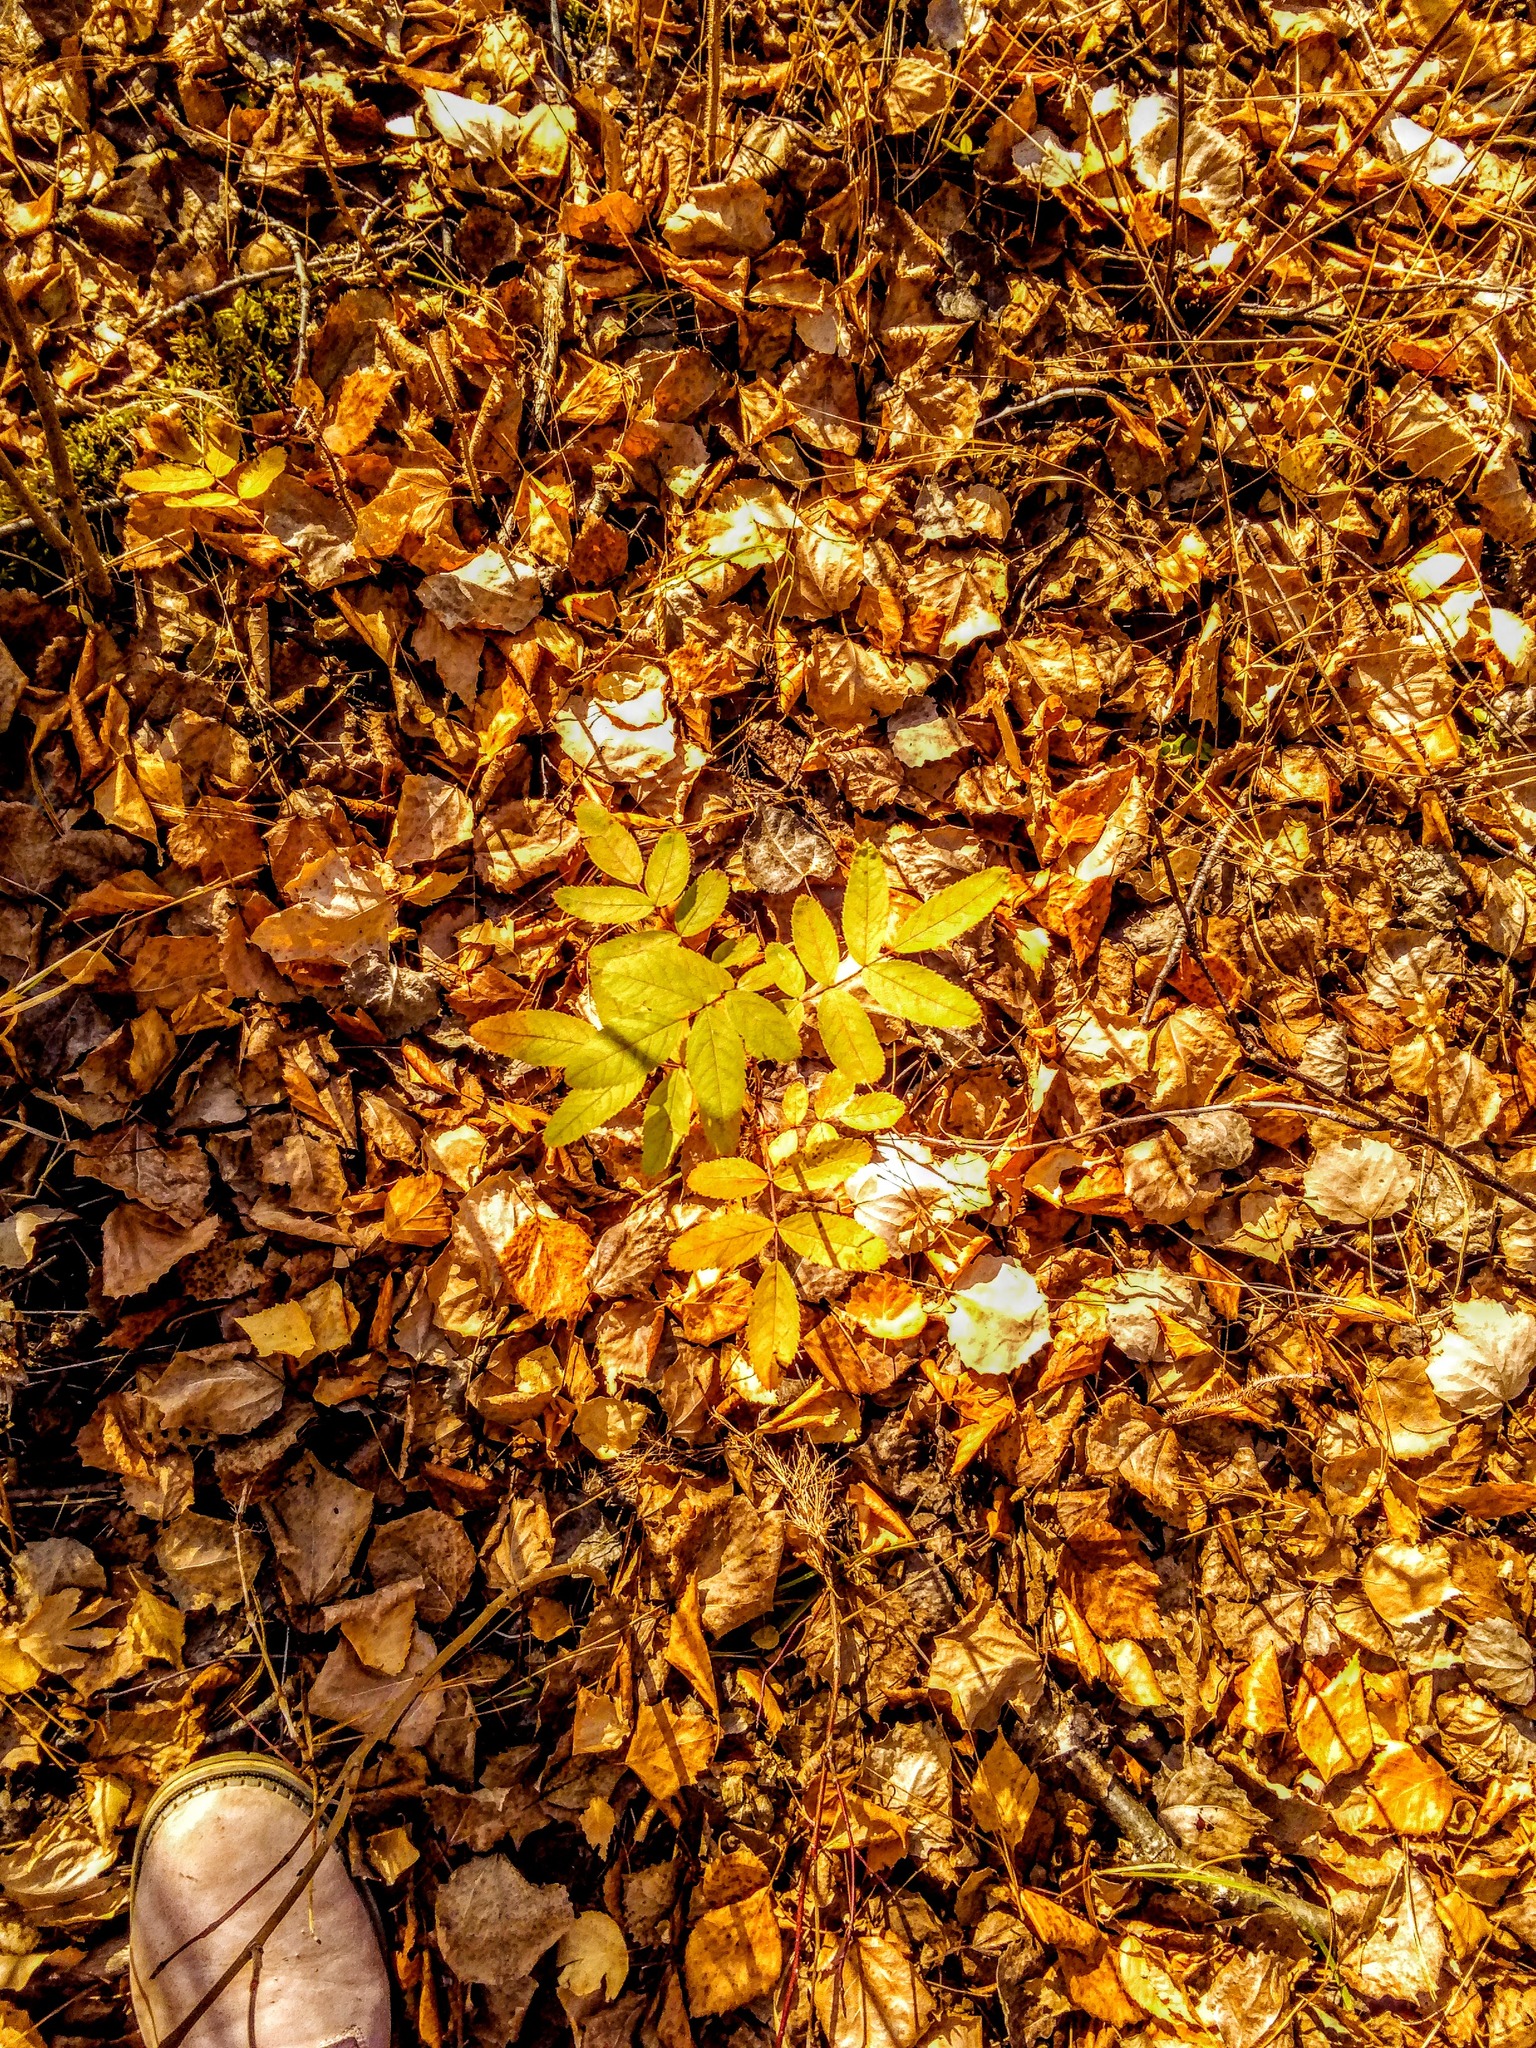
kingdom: Plantae
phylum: Tracheophyta
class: Magnoliopsida
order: Rosales
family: Rosaceae
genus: Rosa
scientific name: Rosa
